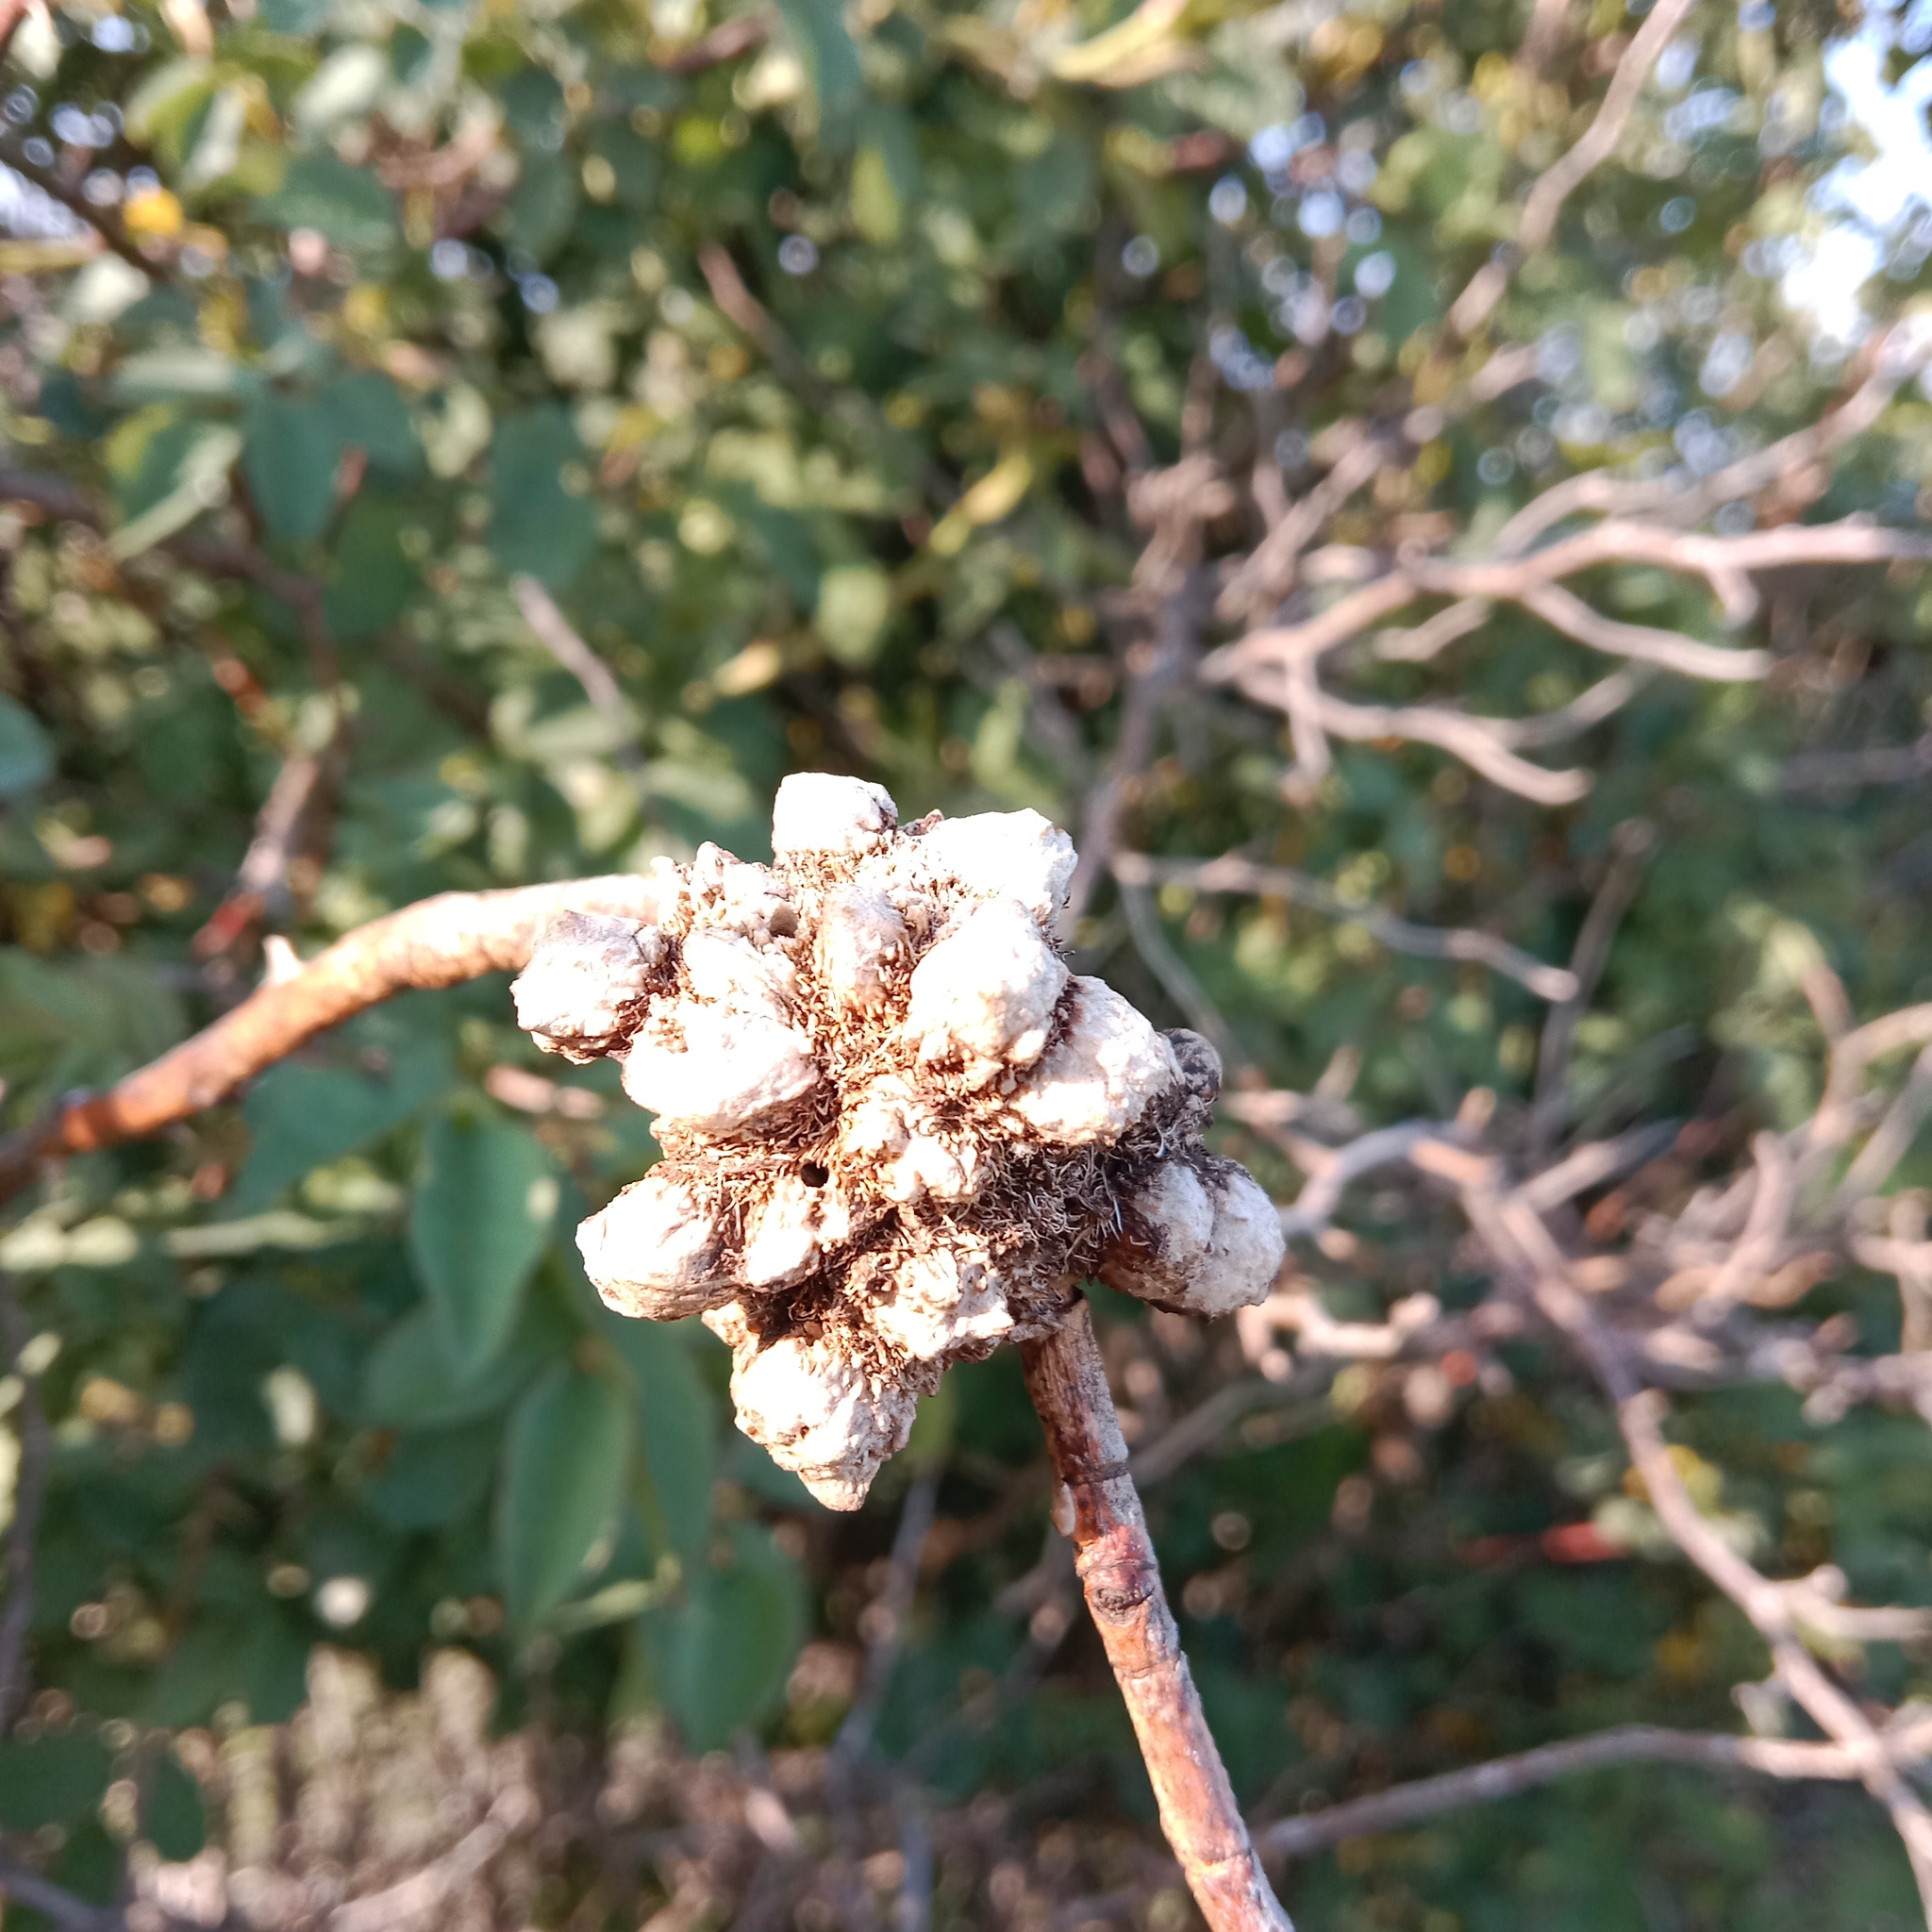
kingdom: Animalia
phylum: Arthropoda
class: Insecta
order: Hymenoptera
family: Cynipidae
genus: Diplolepis
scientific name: Diplolepis rosae
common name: Bedeguar gall
